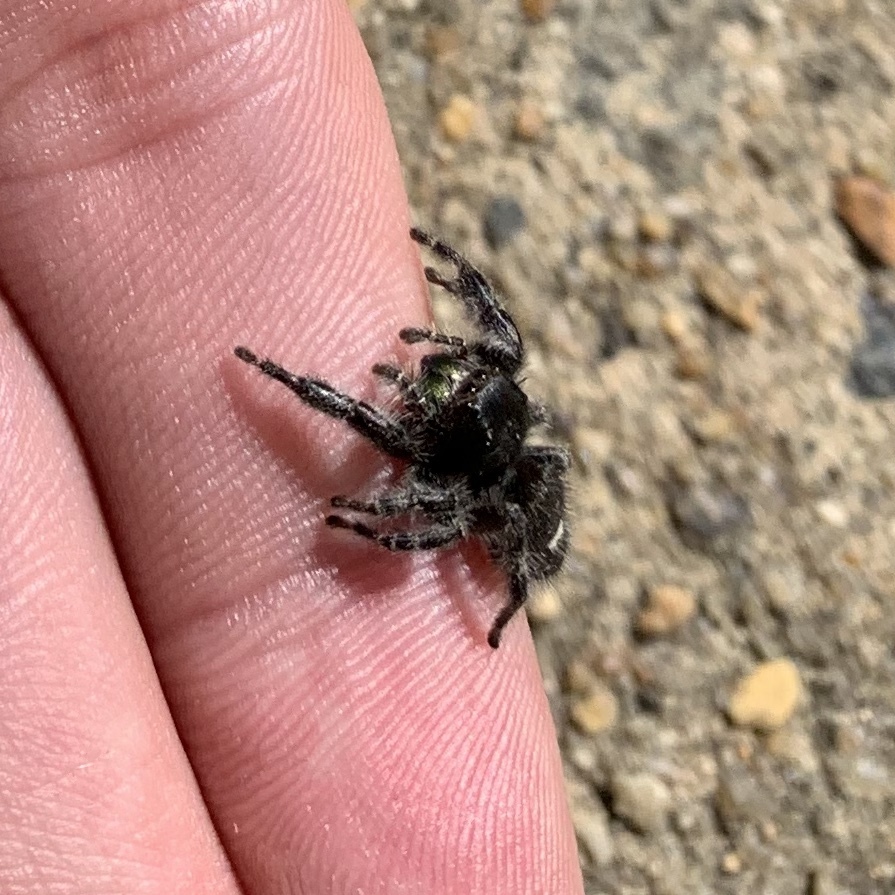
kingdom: Animalia
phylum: Arthropoda
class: Arachnida
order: Araneae
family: Salticidae
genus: Phidippus
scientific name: Phidippus audax
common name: Bold jumper
